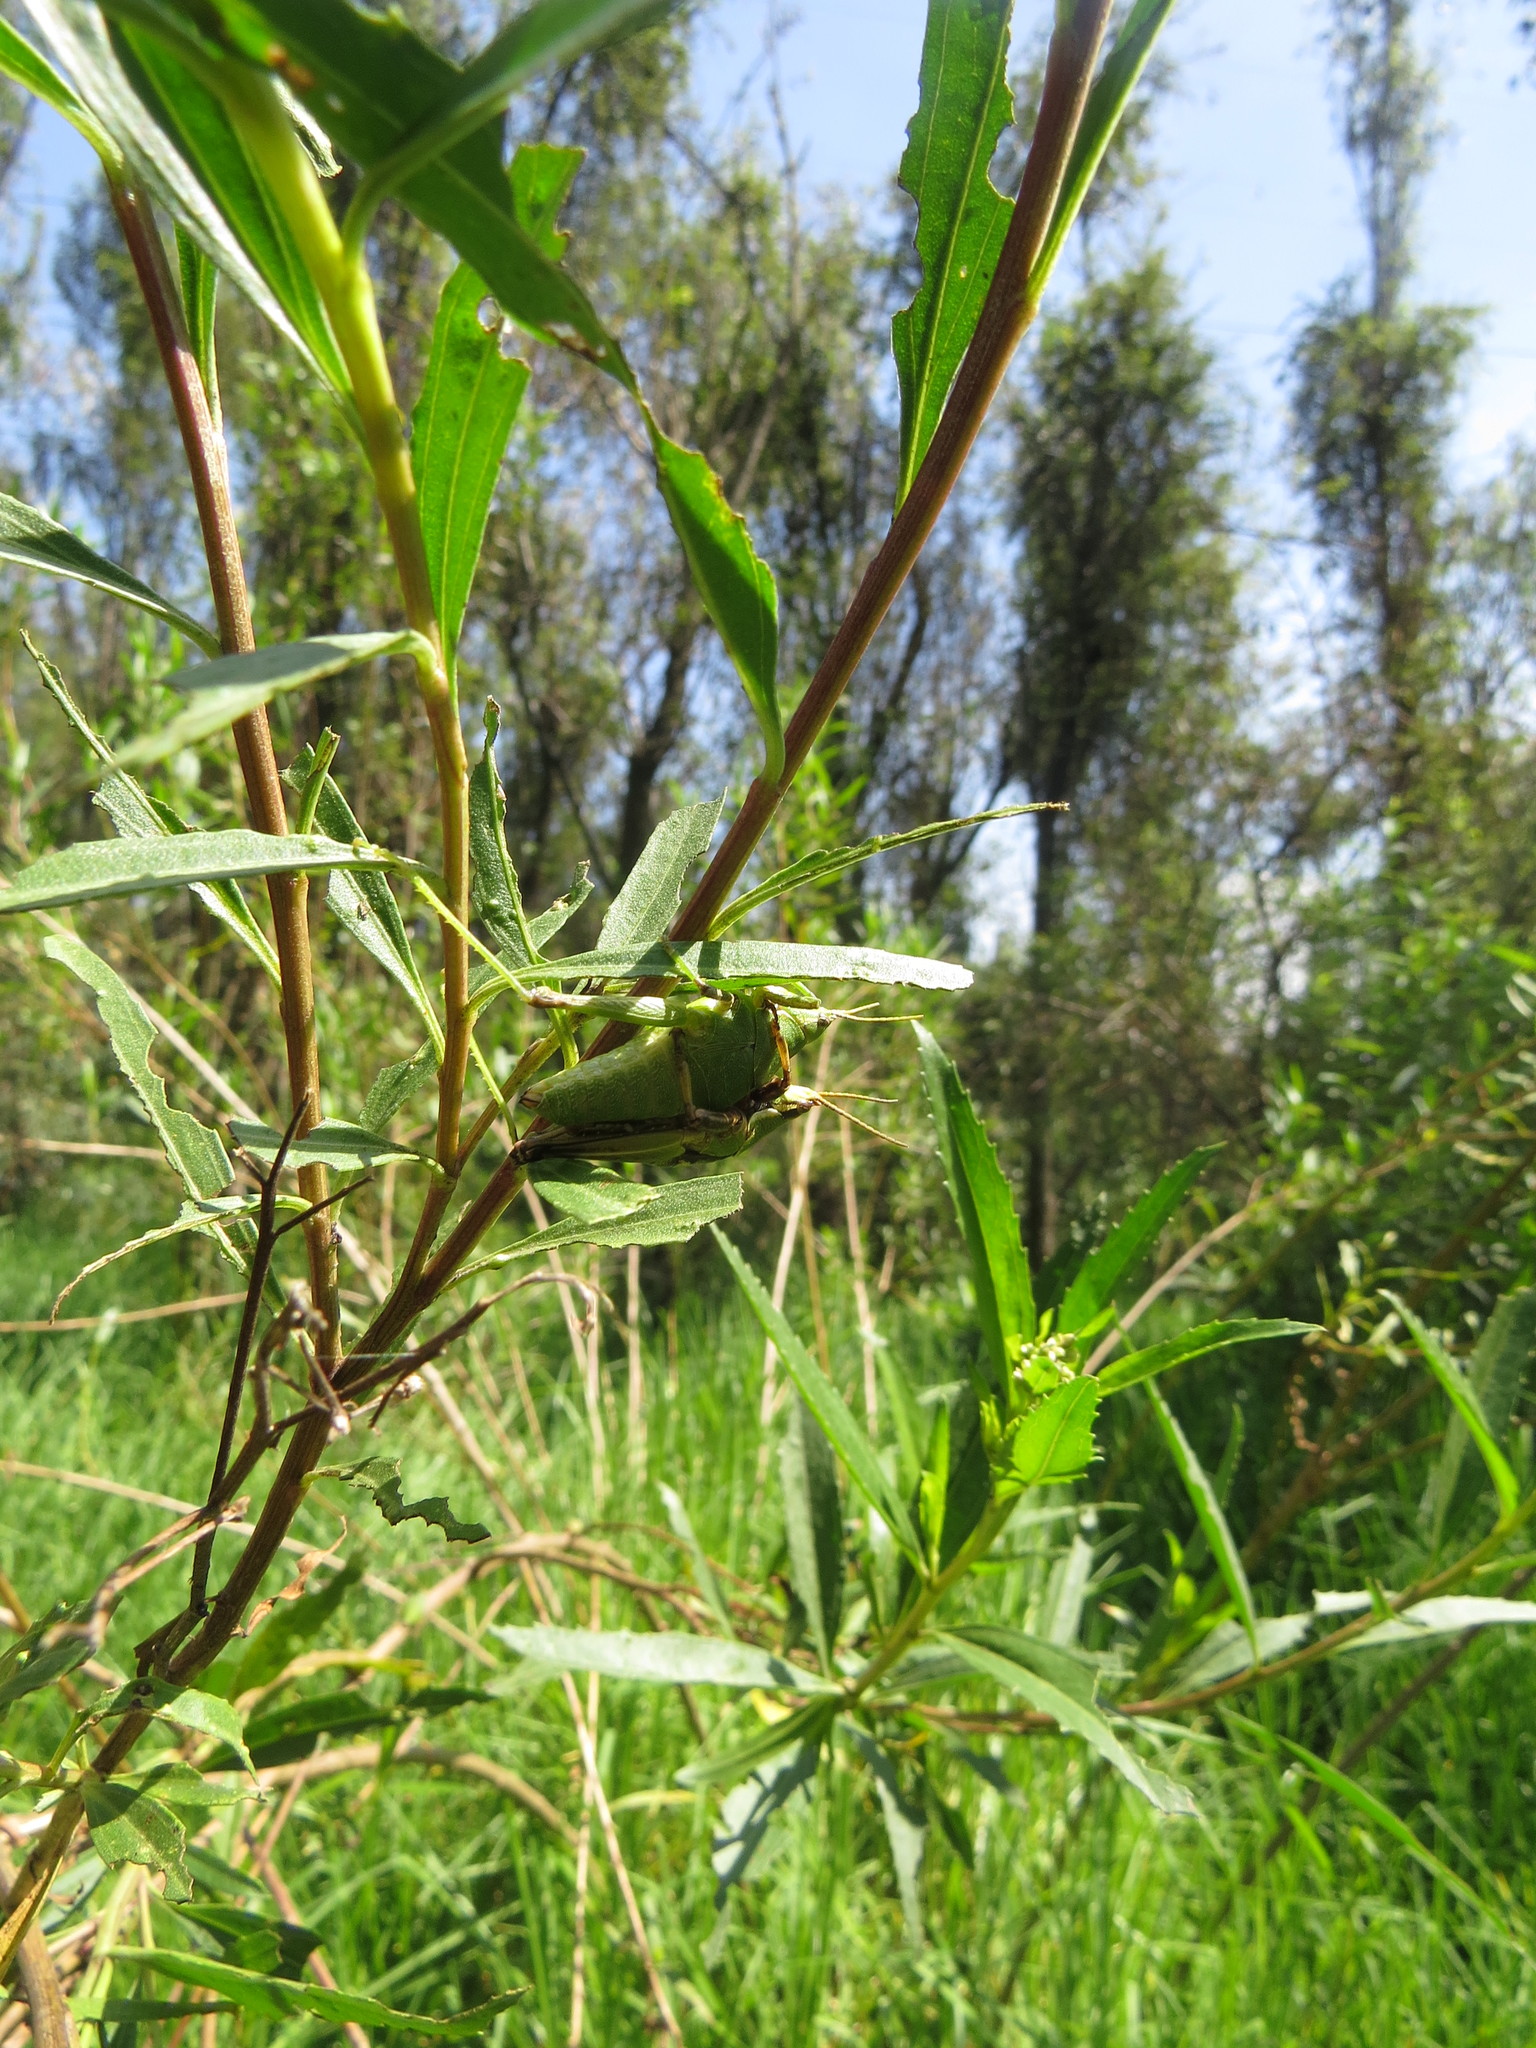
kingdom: Animalia
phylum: Arthropoda
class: Insecta
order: Orthoptera
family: Pyrgomorphidae
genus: Sphenarium
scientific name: Sphenarium purpurascens
